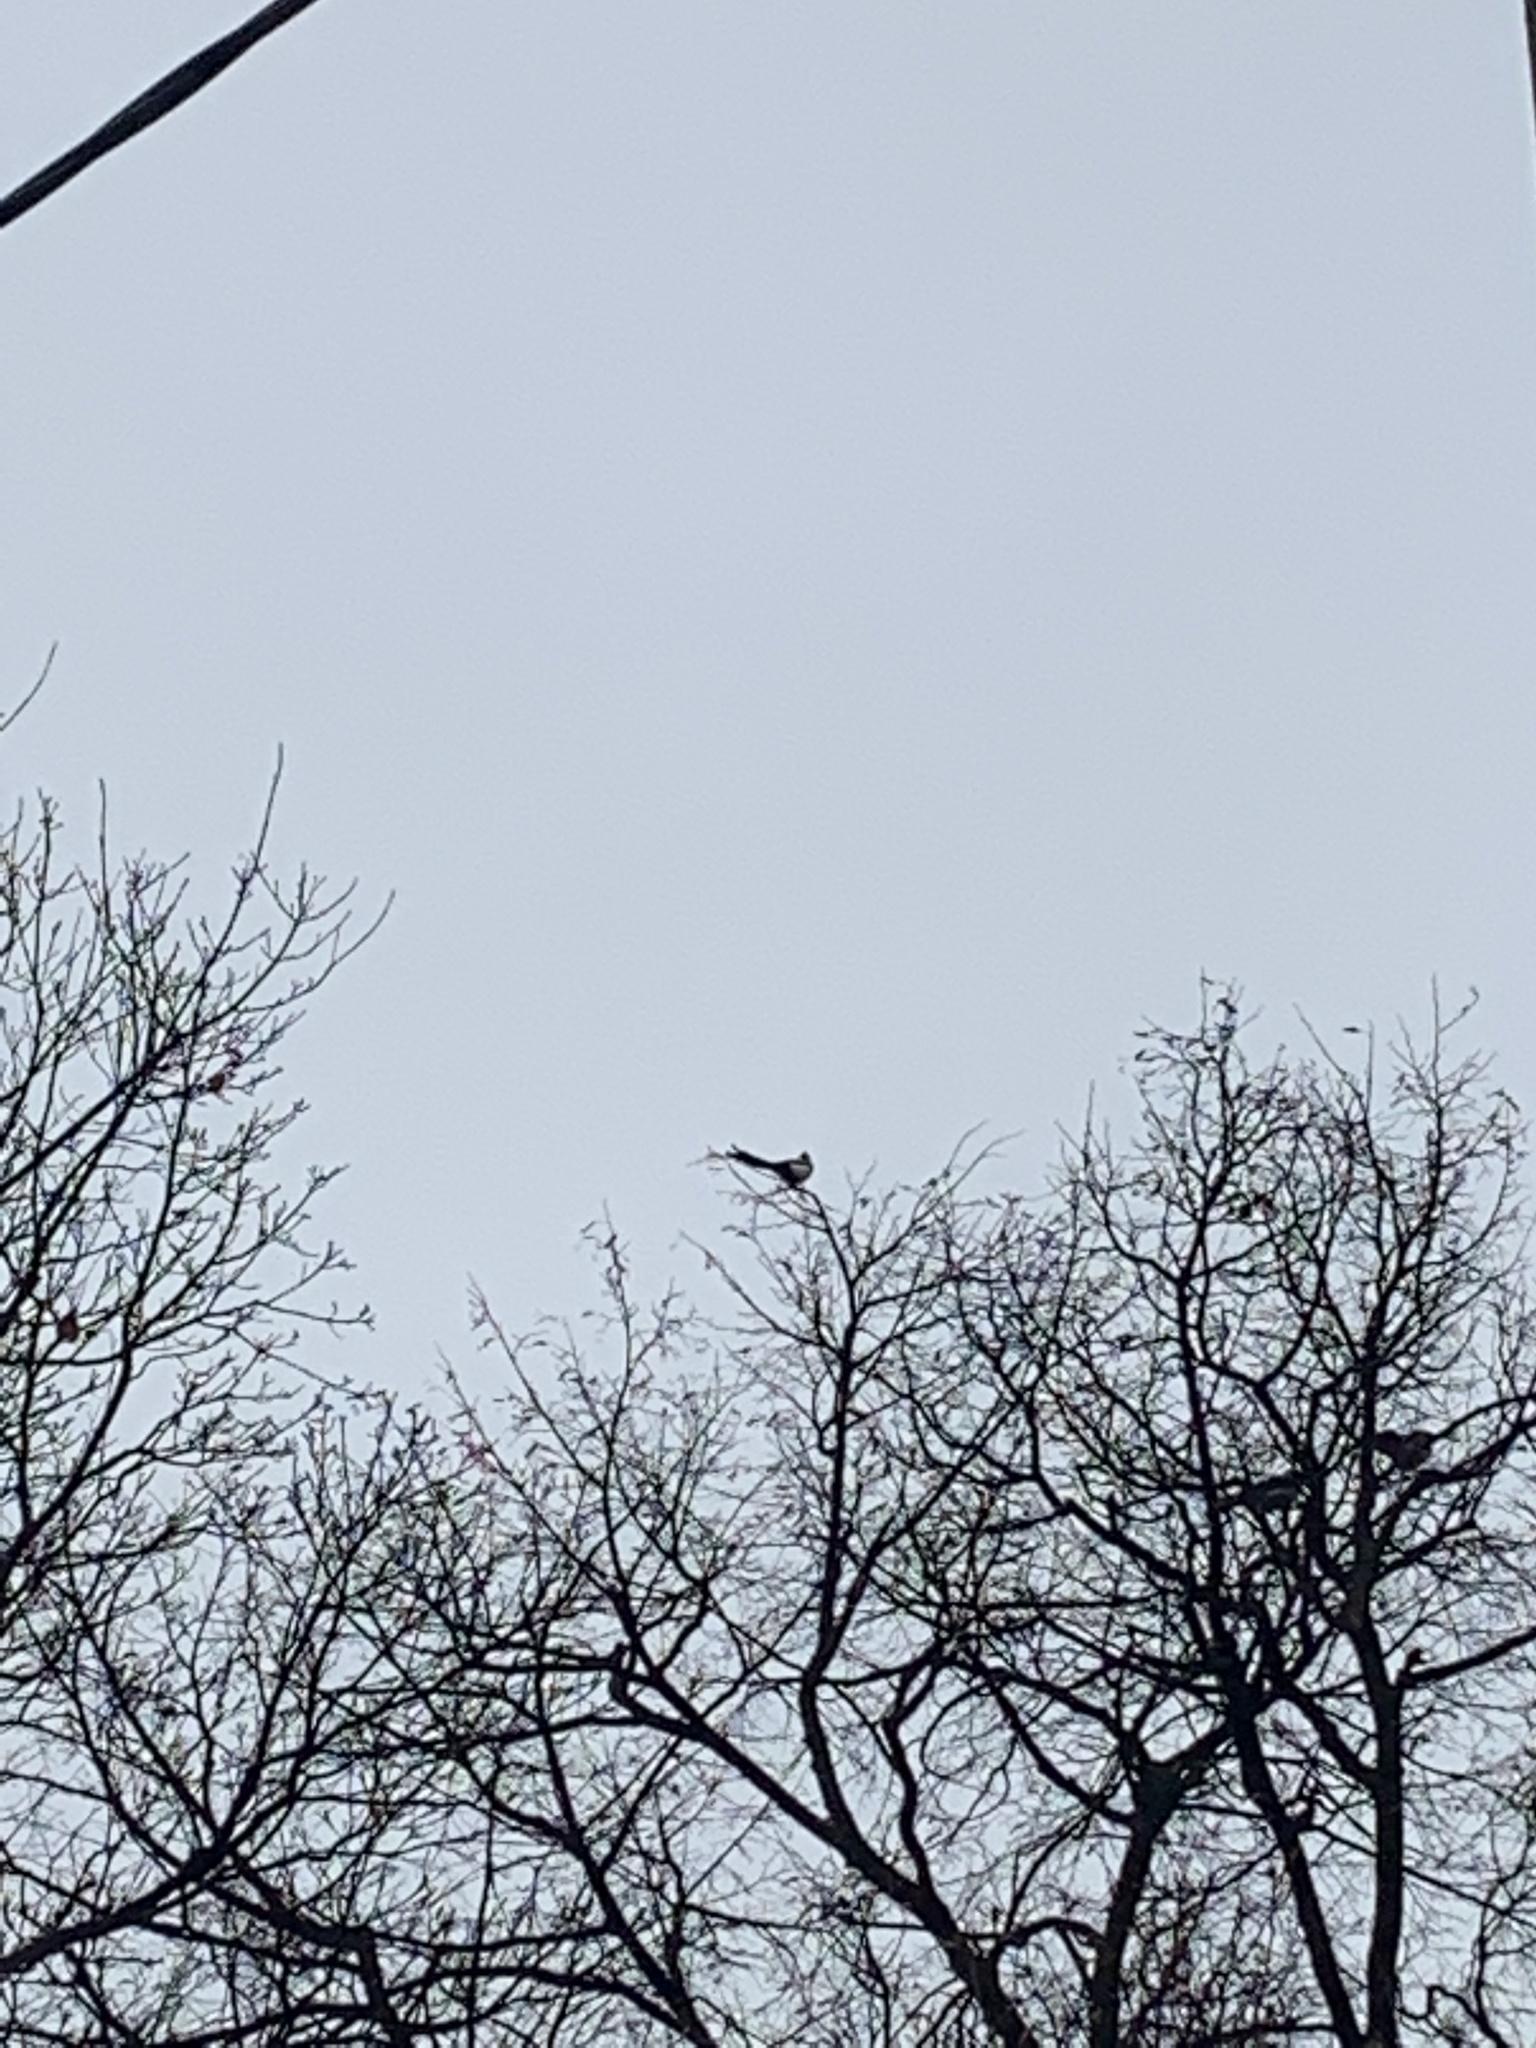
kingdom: Animalia
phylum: Chordata
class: Aves
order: Passeriformes
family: Corvidae
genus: Pica
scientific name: Pica pica
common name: Eurasian magpie
